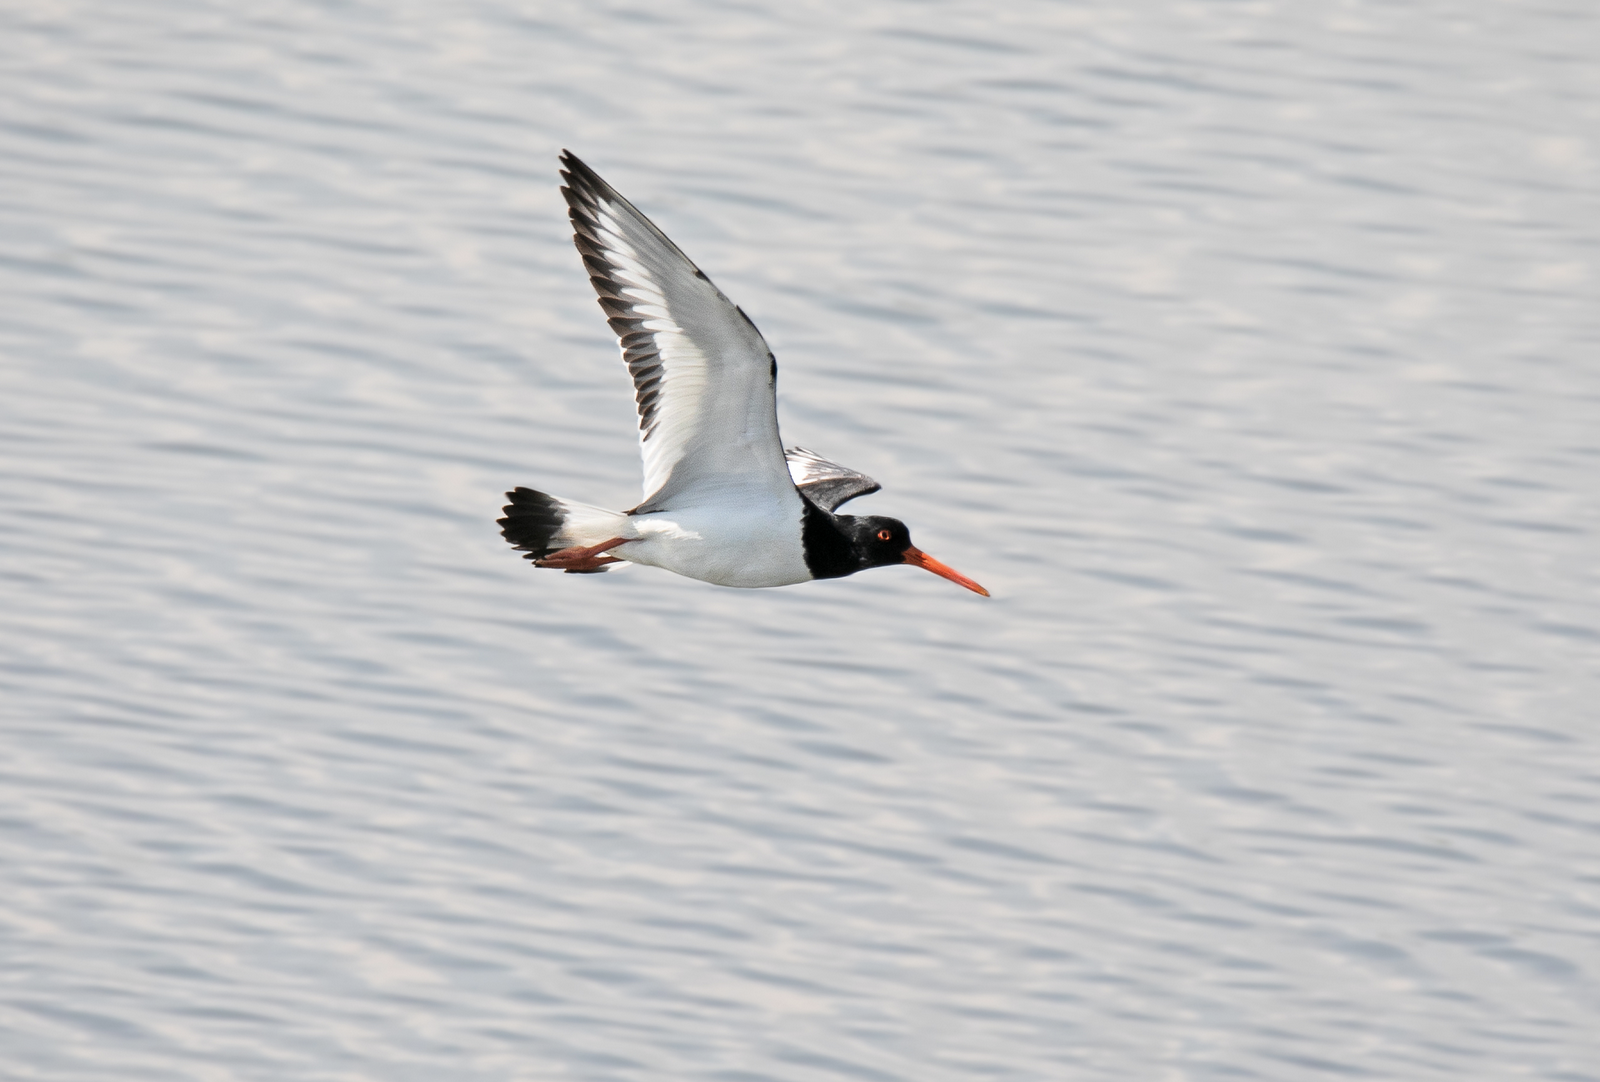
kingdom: Animalia
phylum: Chordata
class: Aves
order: Charadriiformes
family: Haematopodidae
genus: Haematopus
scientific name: Haematopus ostralegus
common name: Eurasian oystercatcher
